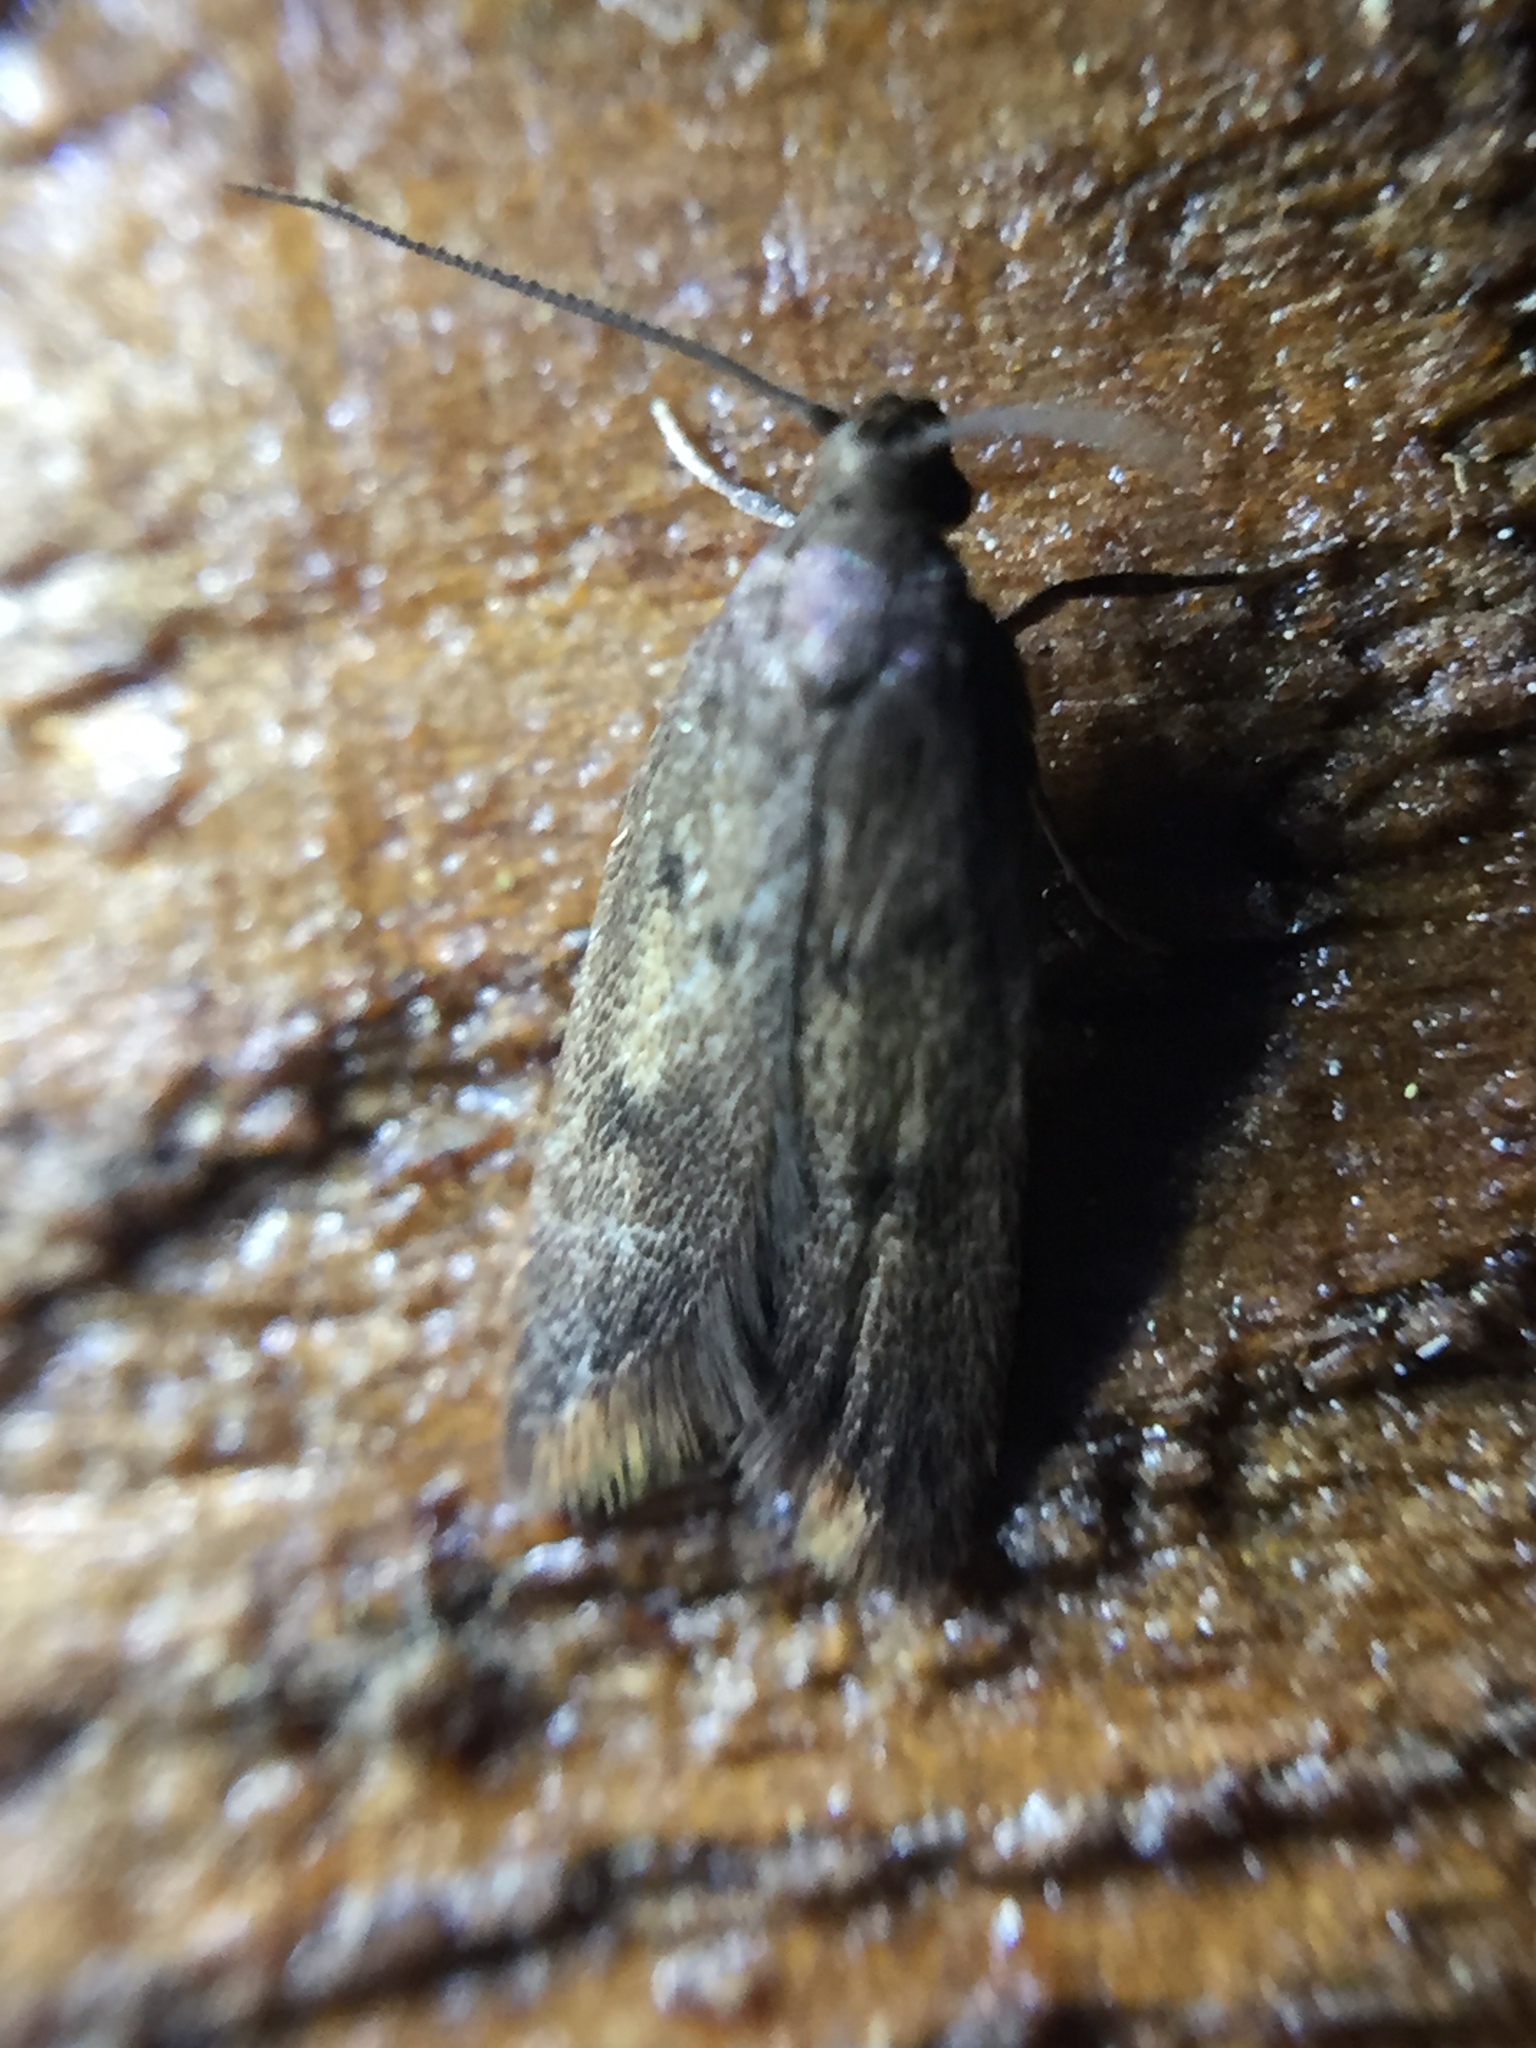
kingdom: Animalia
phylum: Arthropoda
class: Insecta
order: Lepidoptera
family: Oecophoridae
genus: Tachystola
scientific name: Tachystola acroxantha
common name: Ruddy streak
